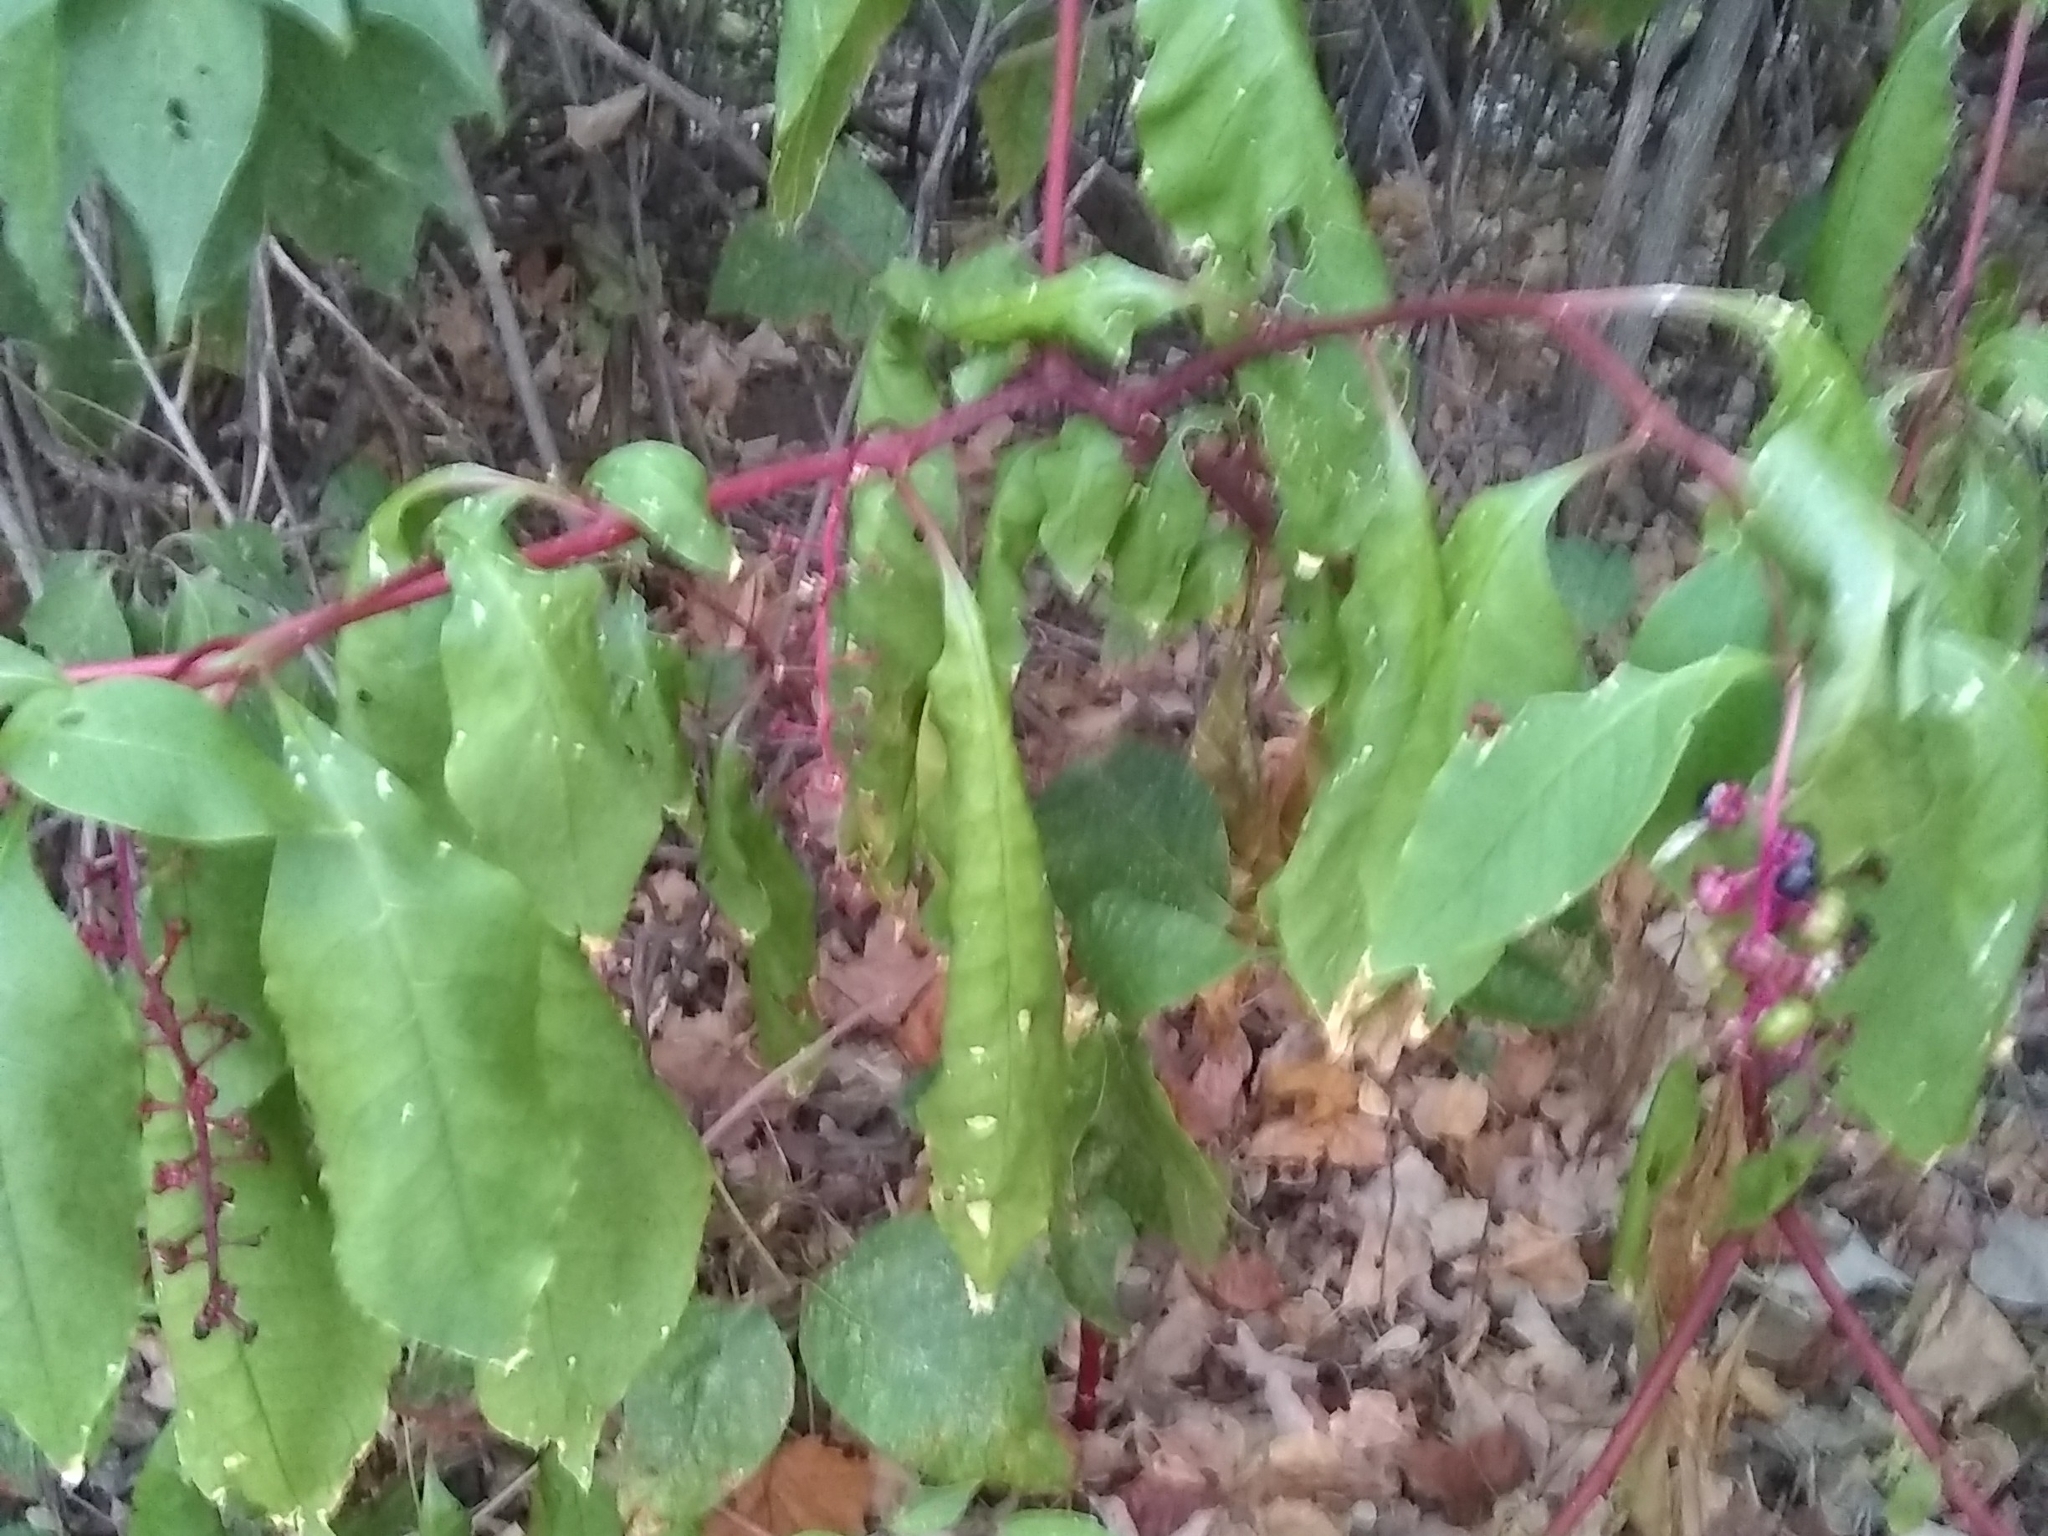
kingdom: Plantae
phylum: Tracheophyta
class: Magnoliopsida
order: Caryophyllales
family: Phytolaccaceae
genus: Phytolacca
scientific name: Phytolacca americana
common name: American pokeweed
